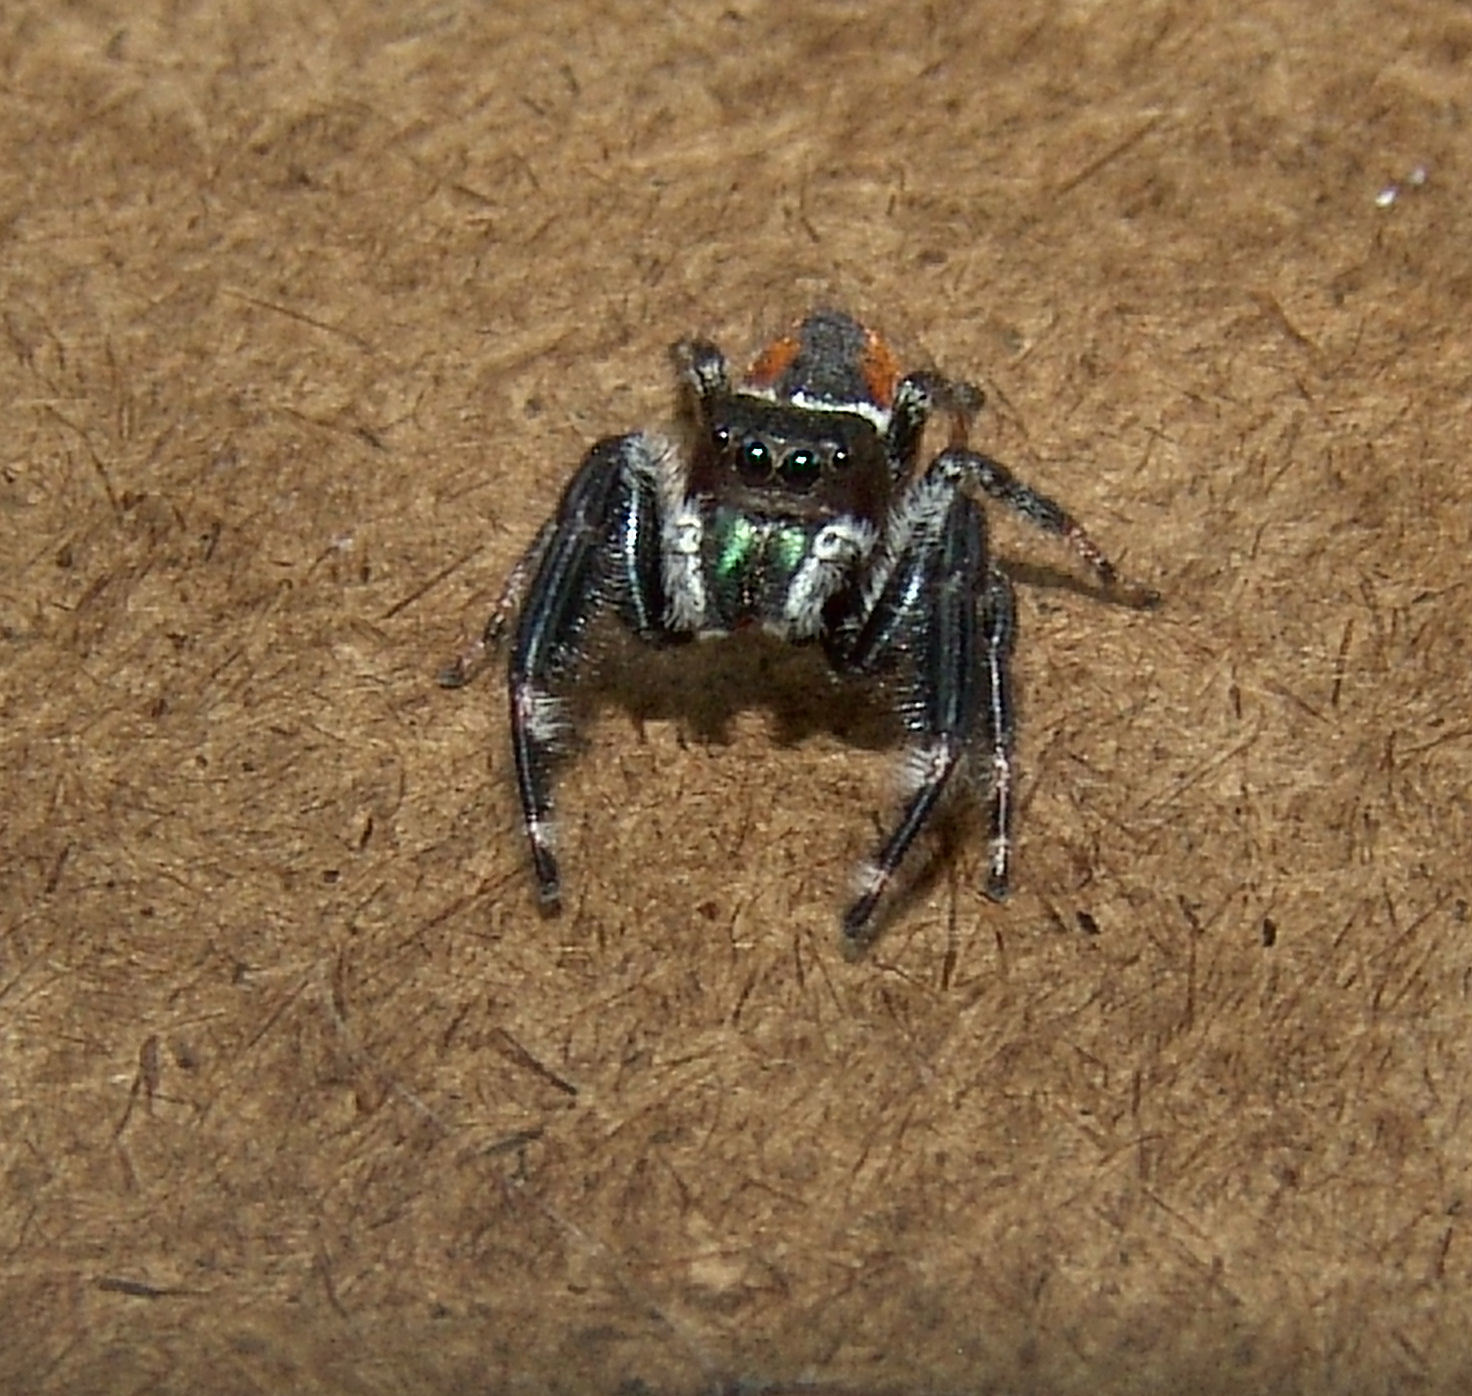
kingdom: Animalia
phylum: Arthropoda
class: Arachnida
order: Araneae
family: Salticidae
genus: Phidippus
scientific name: Phidippus clarus
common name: Brilliant jumping spider
